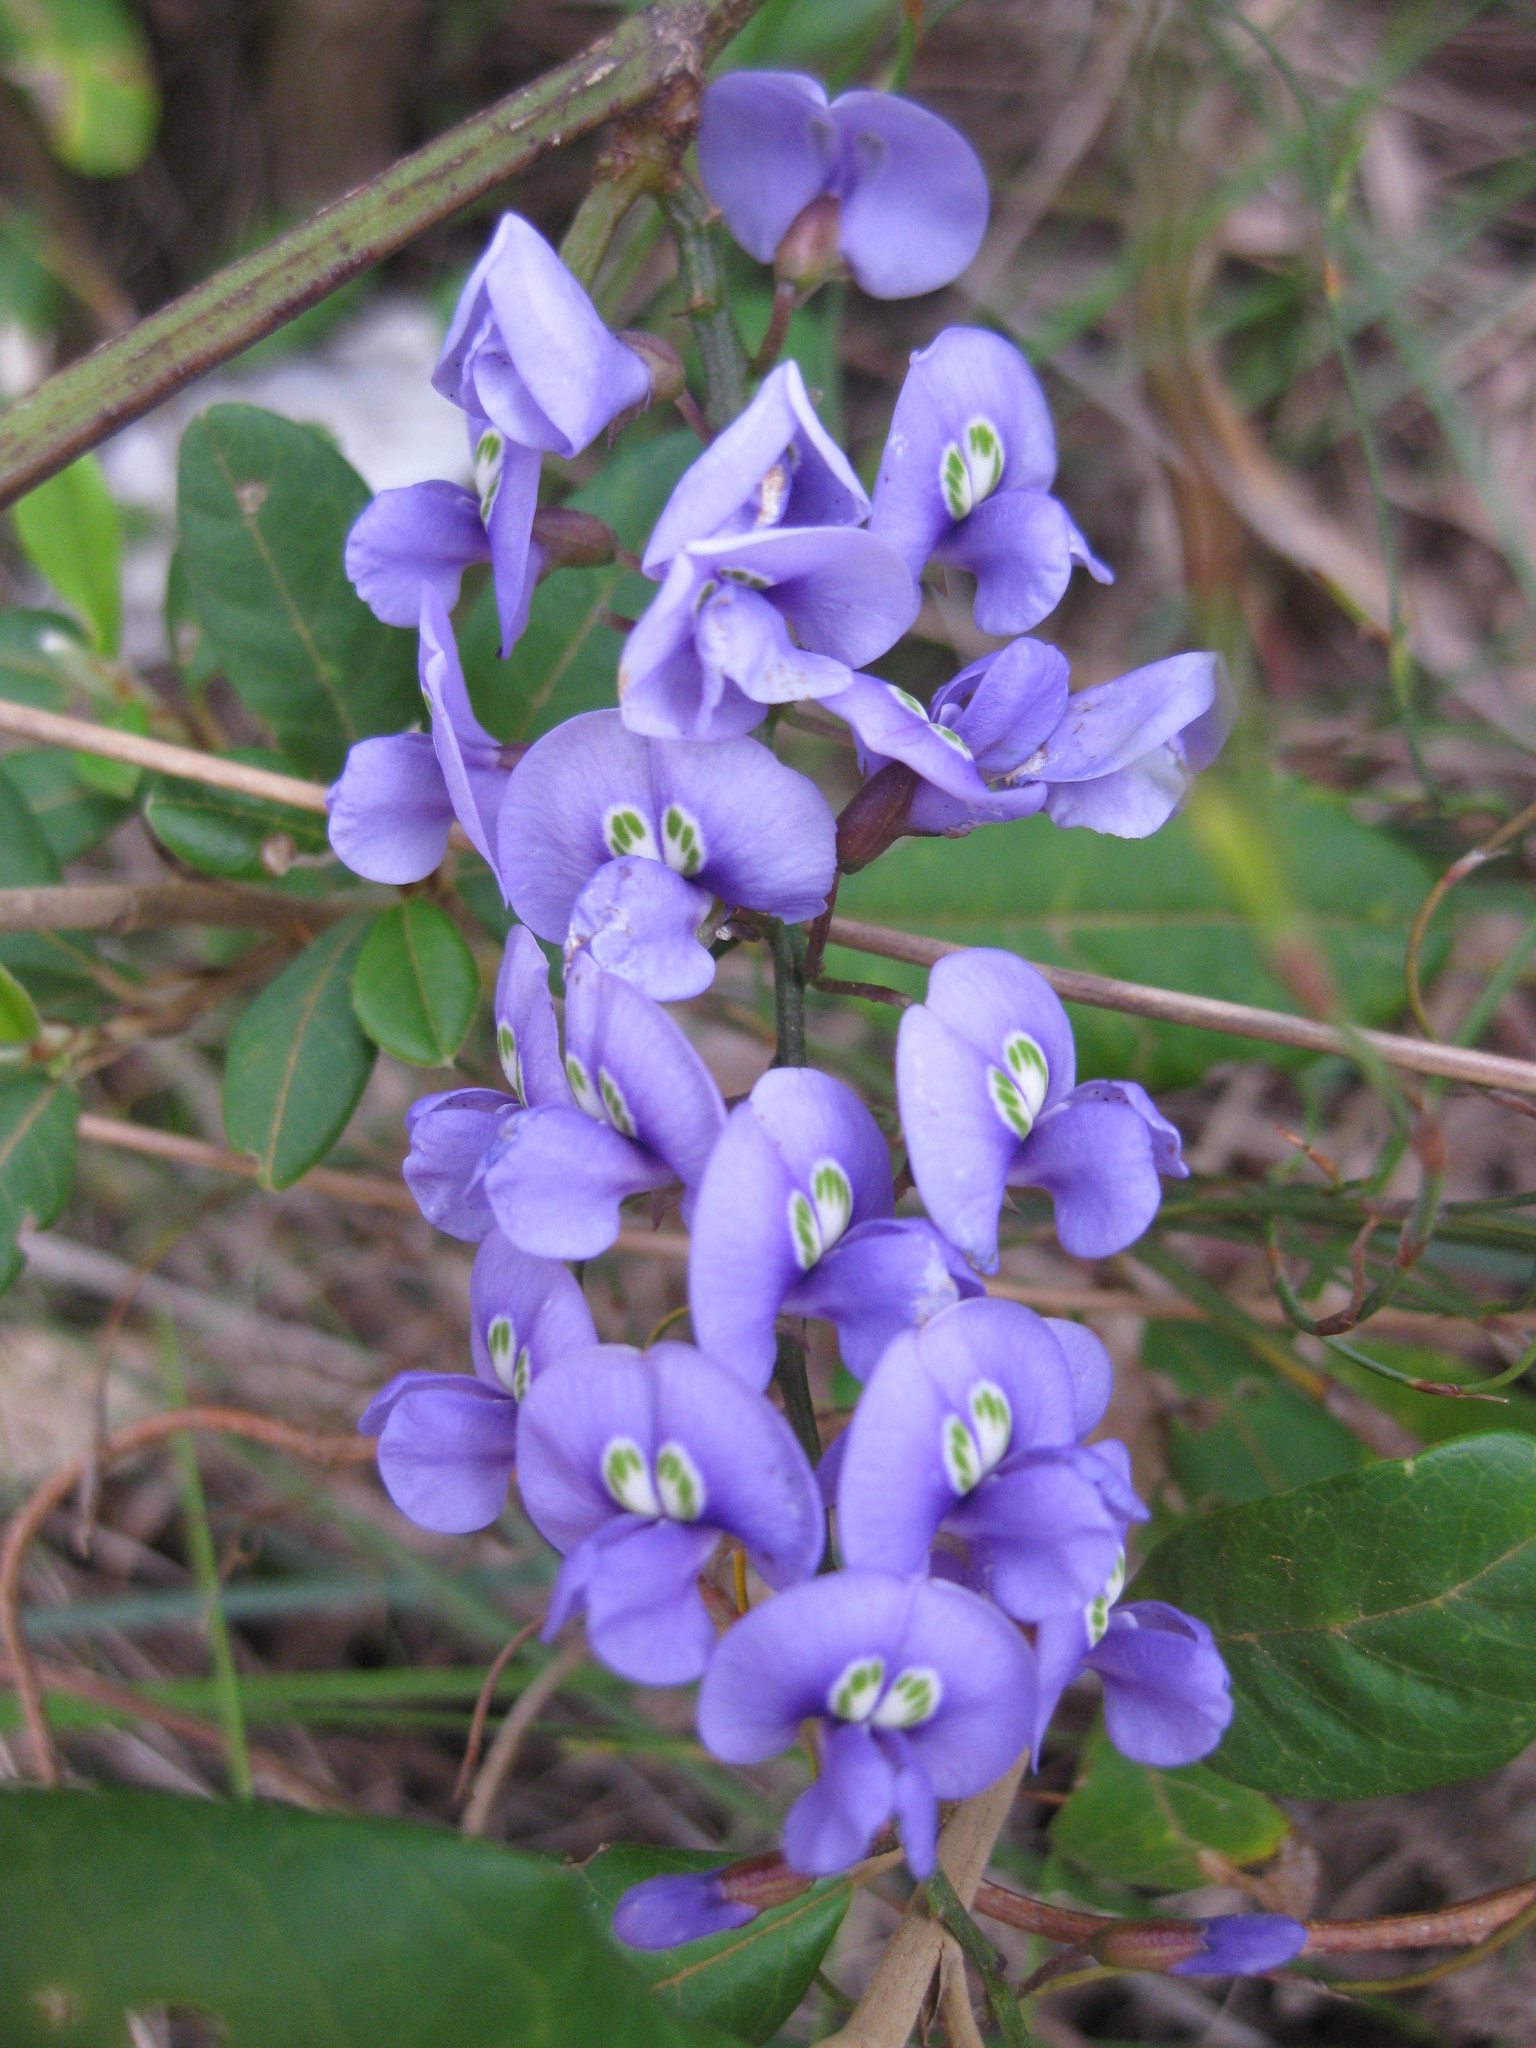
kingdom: Plantae
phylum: Tracheophyta
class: Magnoliopsida
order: Fabales
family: Fabaceae
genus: Hardenbergia
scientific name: Hardenbergia comptoniana
